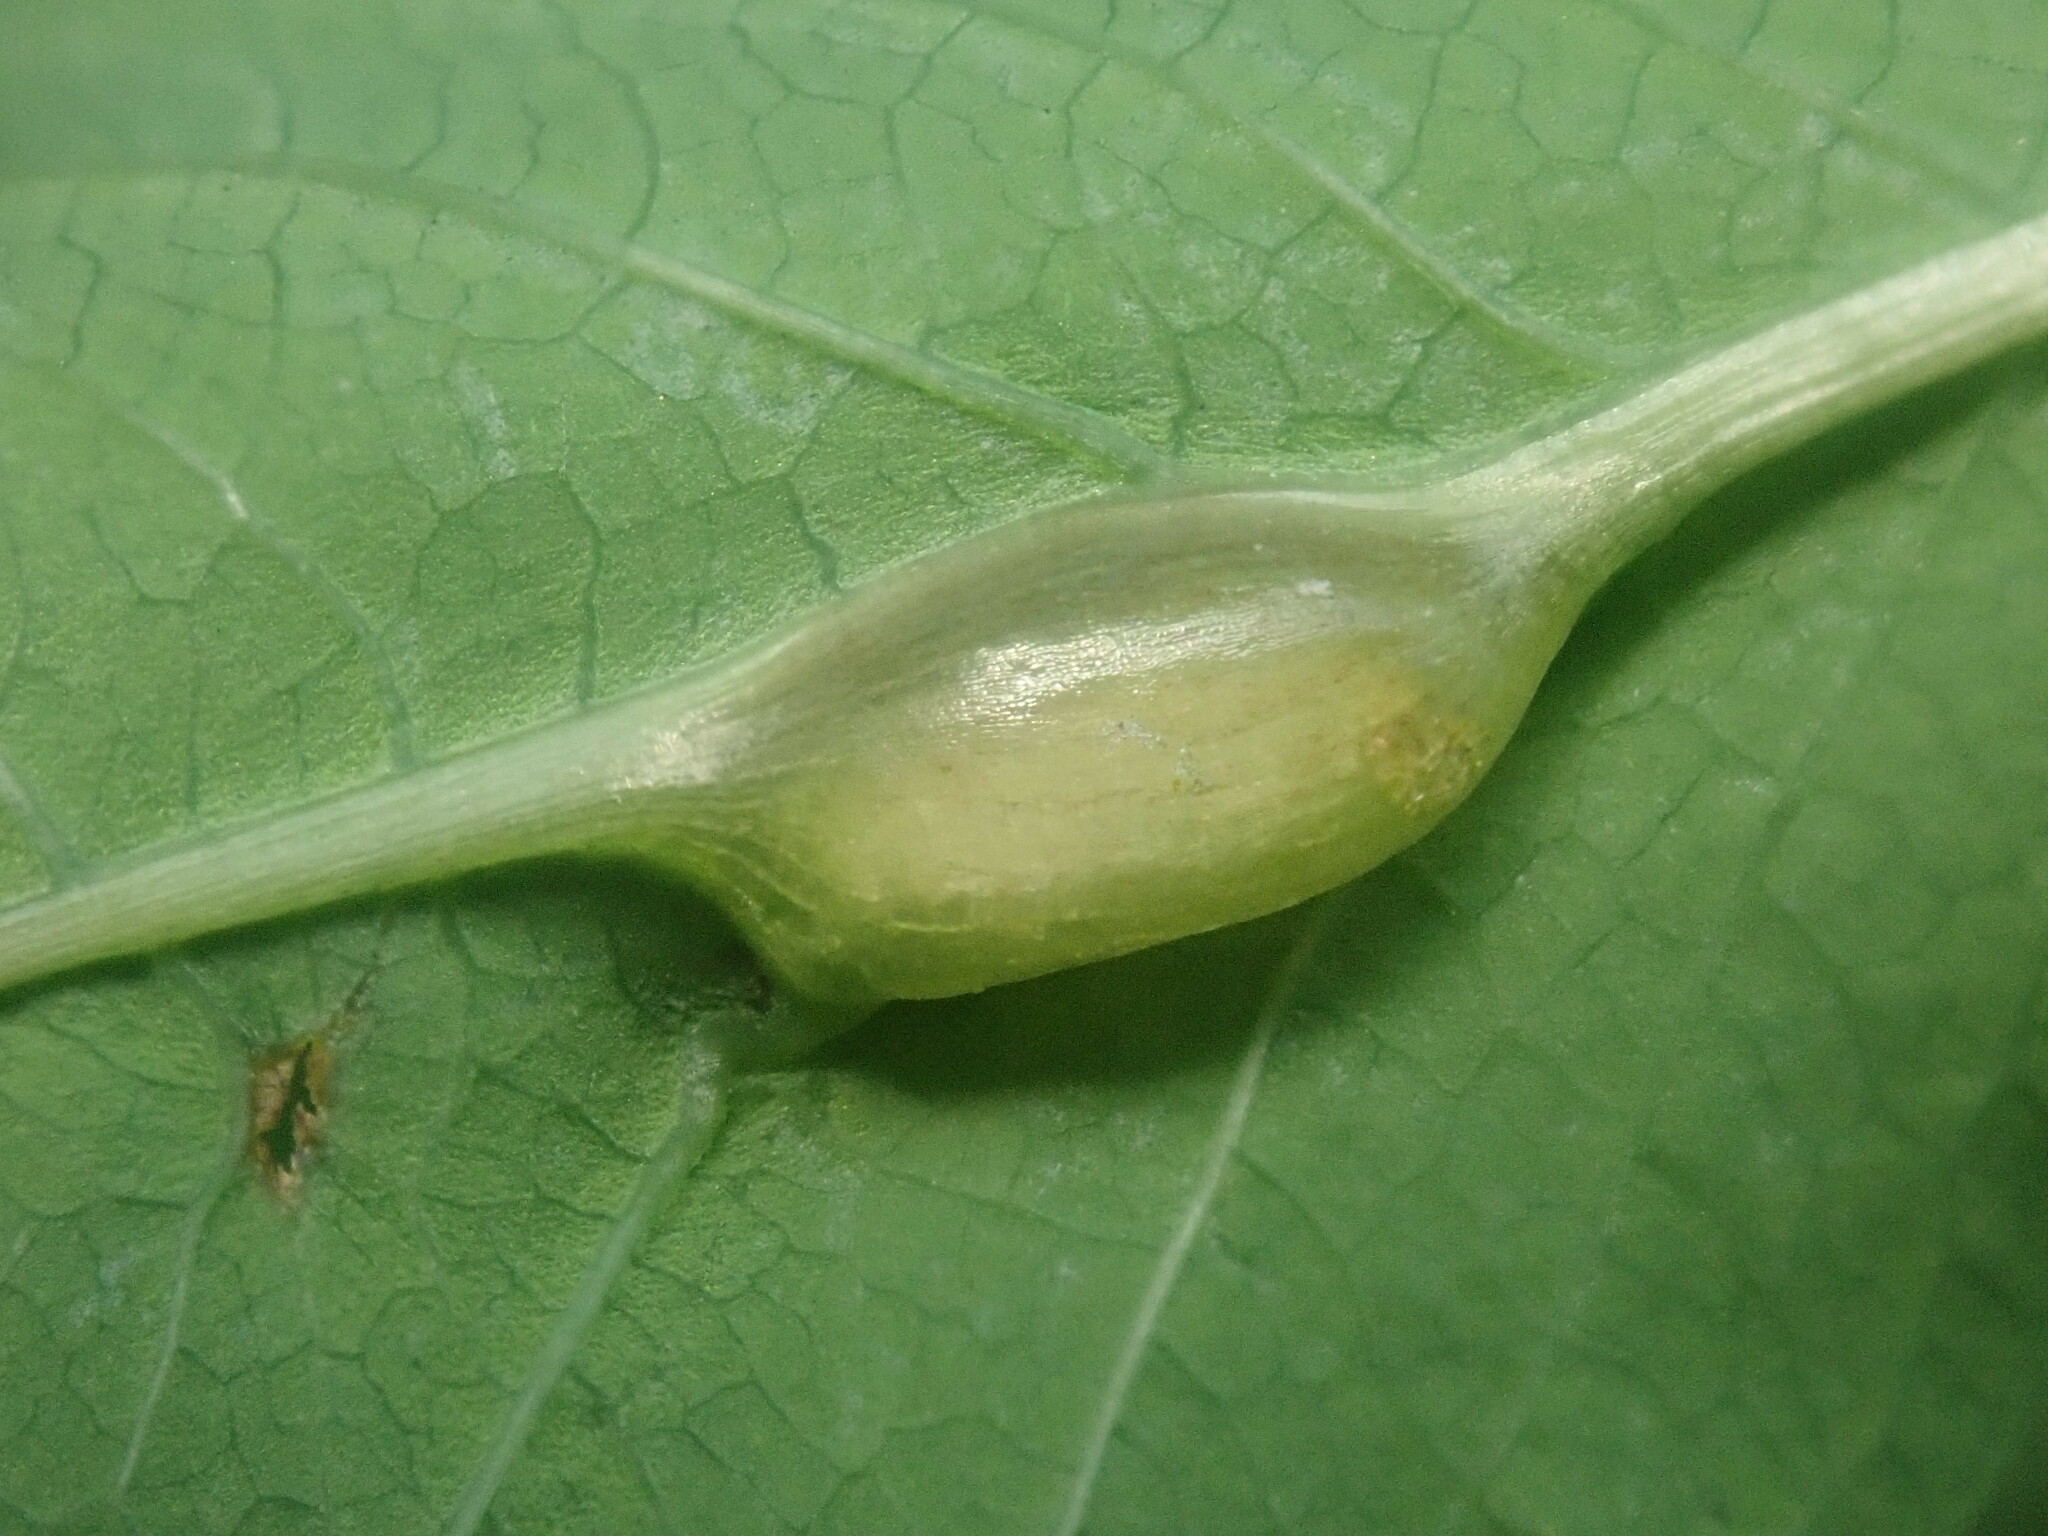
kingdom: Animalia
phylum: Arthropoda
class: Insecta
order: Diptera
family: Cecidomyiidae
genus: Neolasioptera
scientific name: Neolasioptera impatientifolia
